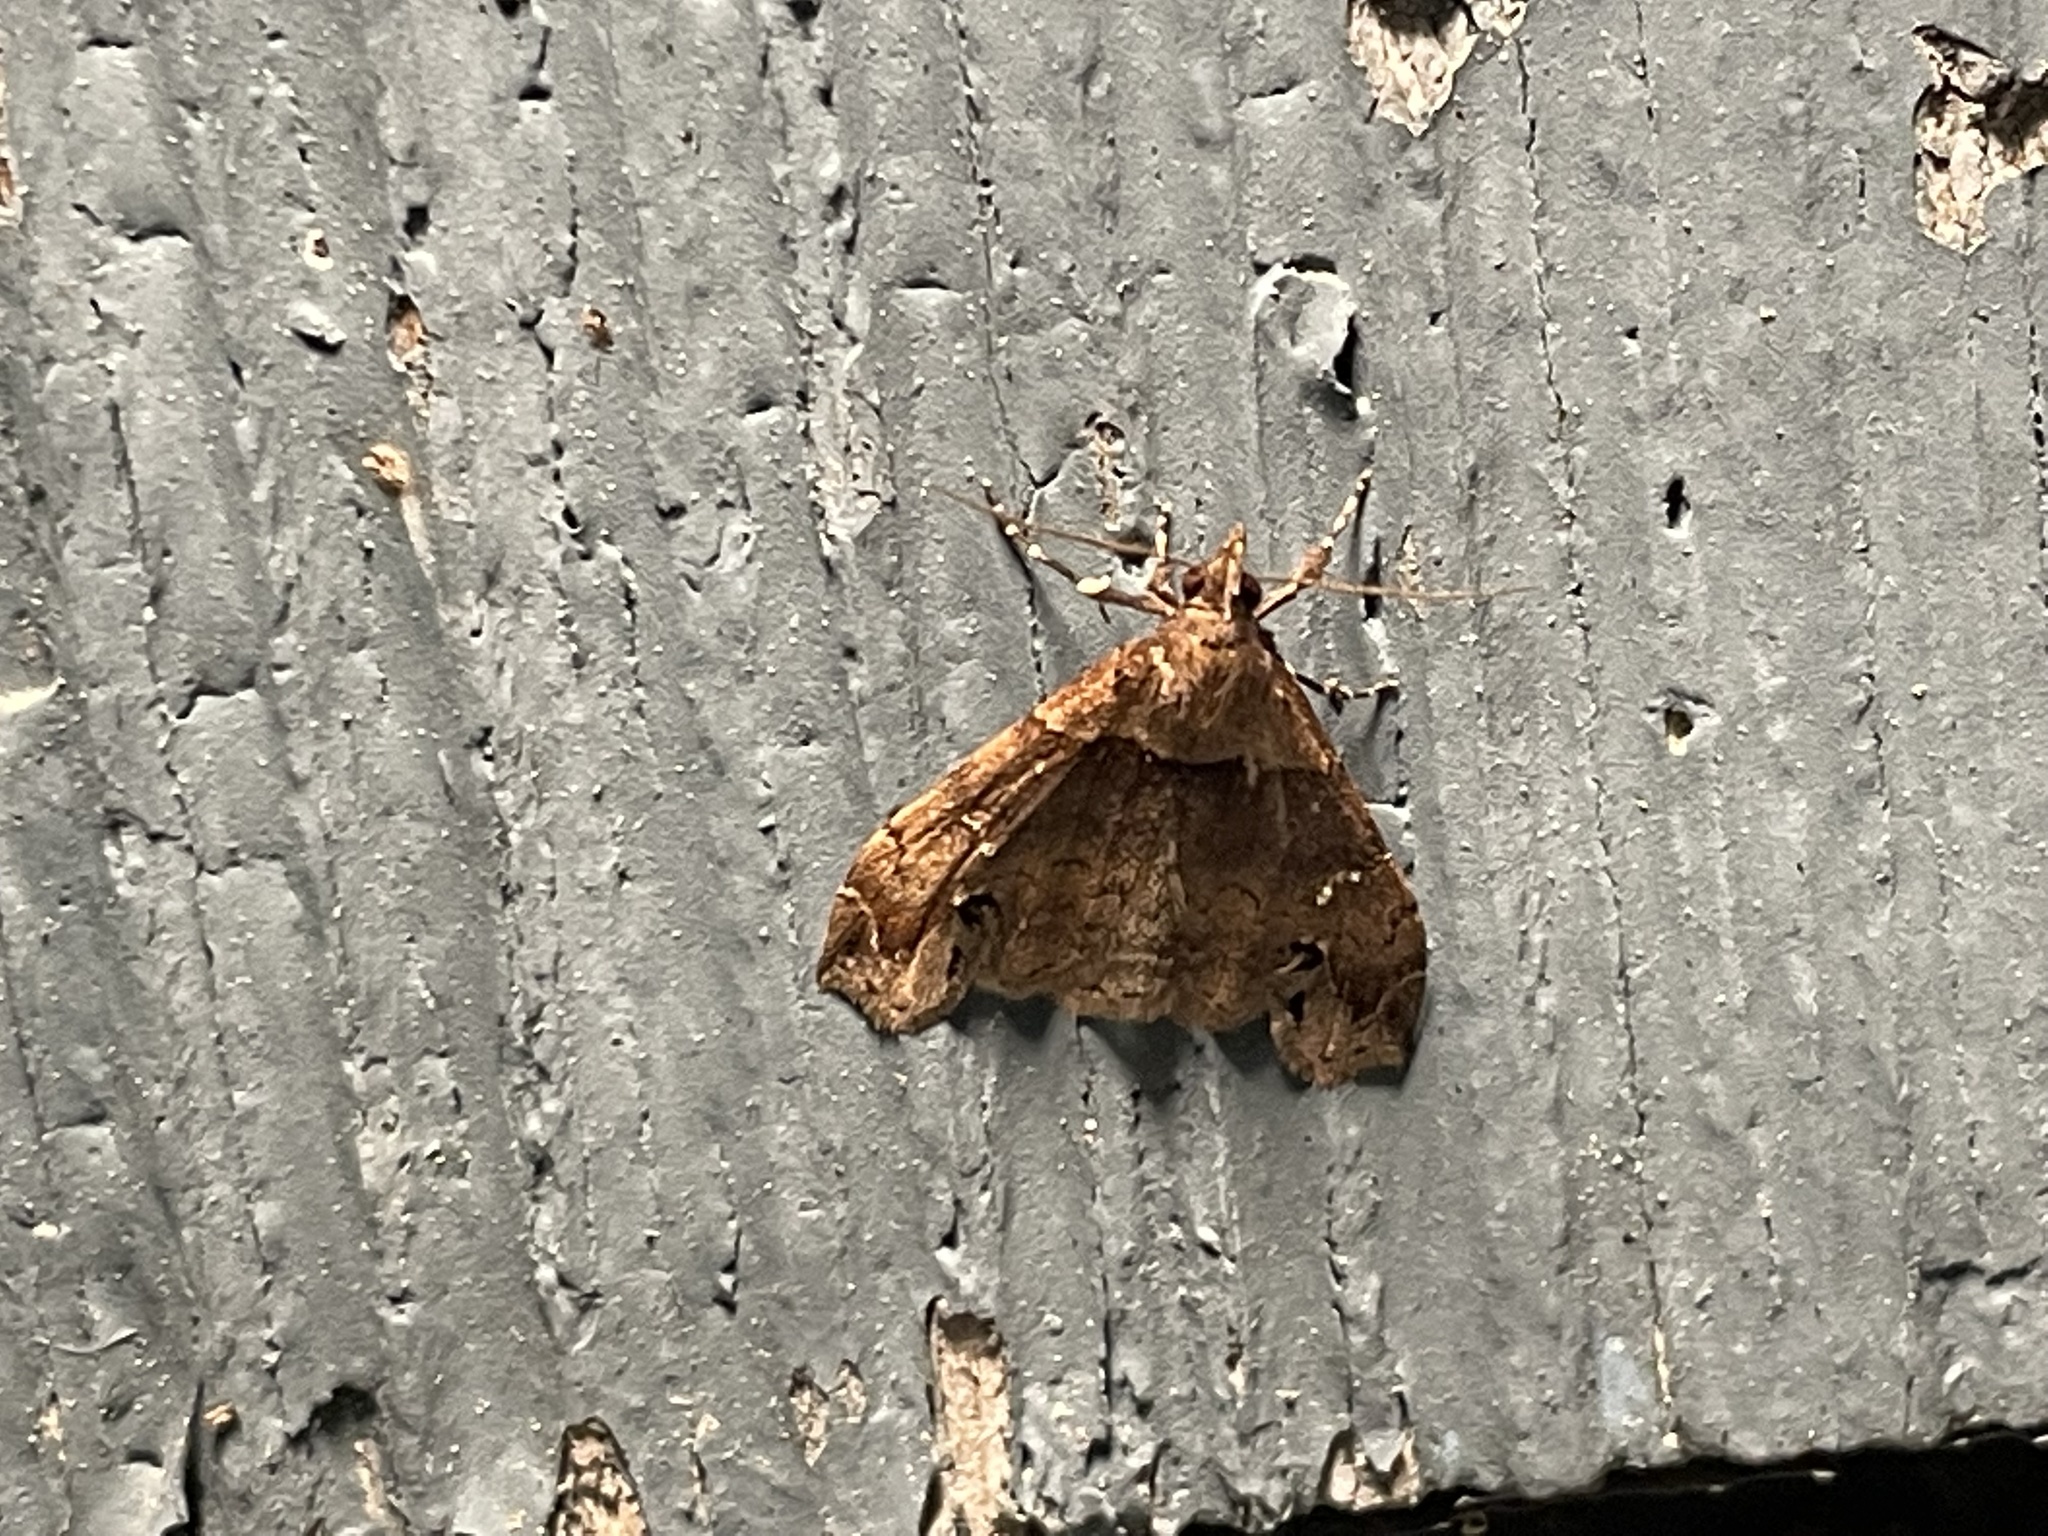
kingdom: Animalia
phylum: Arthropoda
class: Insecta
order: Lepidoptera
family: Erebidae
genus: Lascoria
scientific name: Lascoria ambigualis
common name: Ambiguous moth
